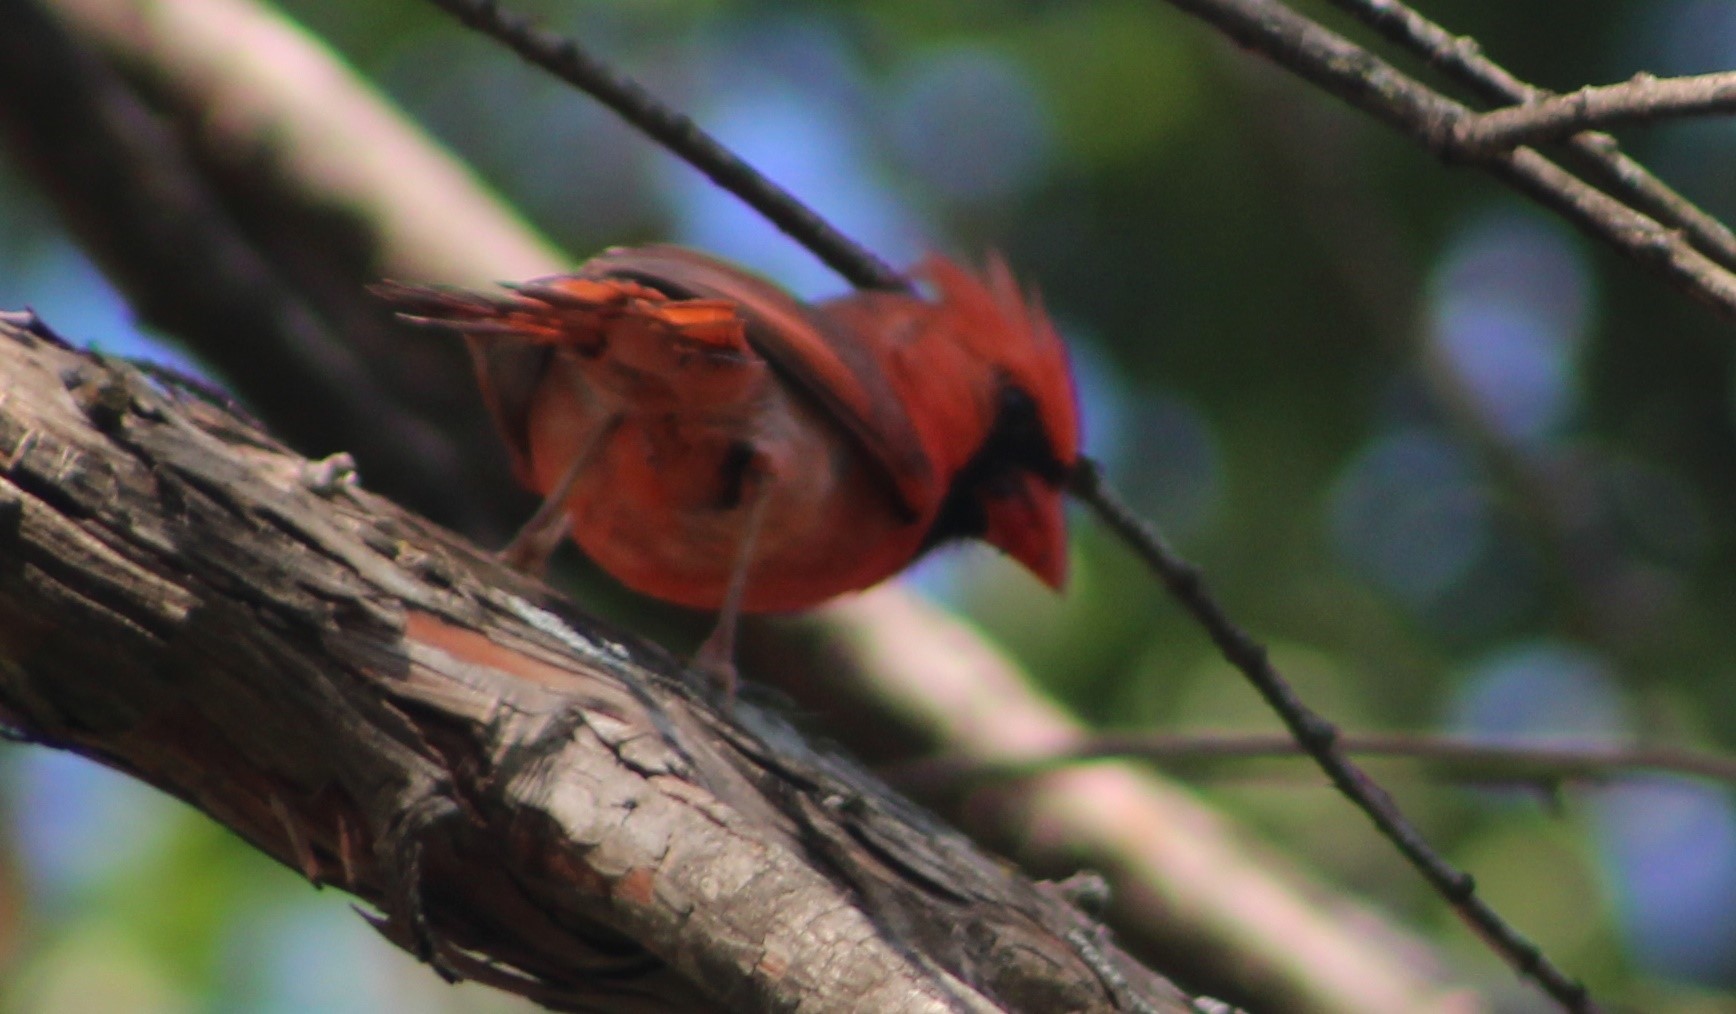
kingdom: Animalia
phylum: Chordata
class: Aves
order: Passeriformes
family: Cardinalidae
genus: Cardinalis
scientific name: Cardinalis cardinalis
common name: Northern cardinal
